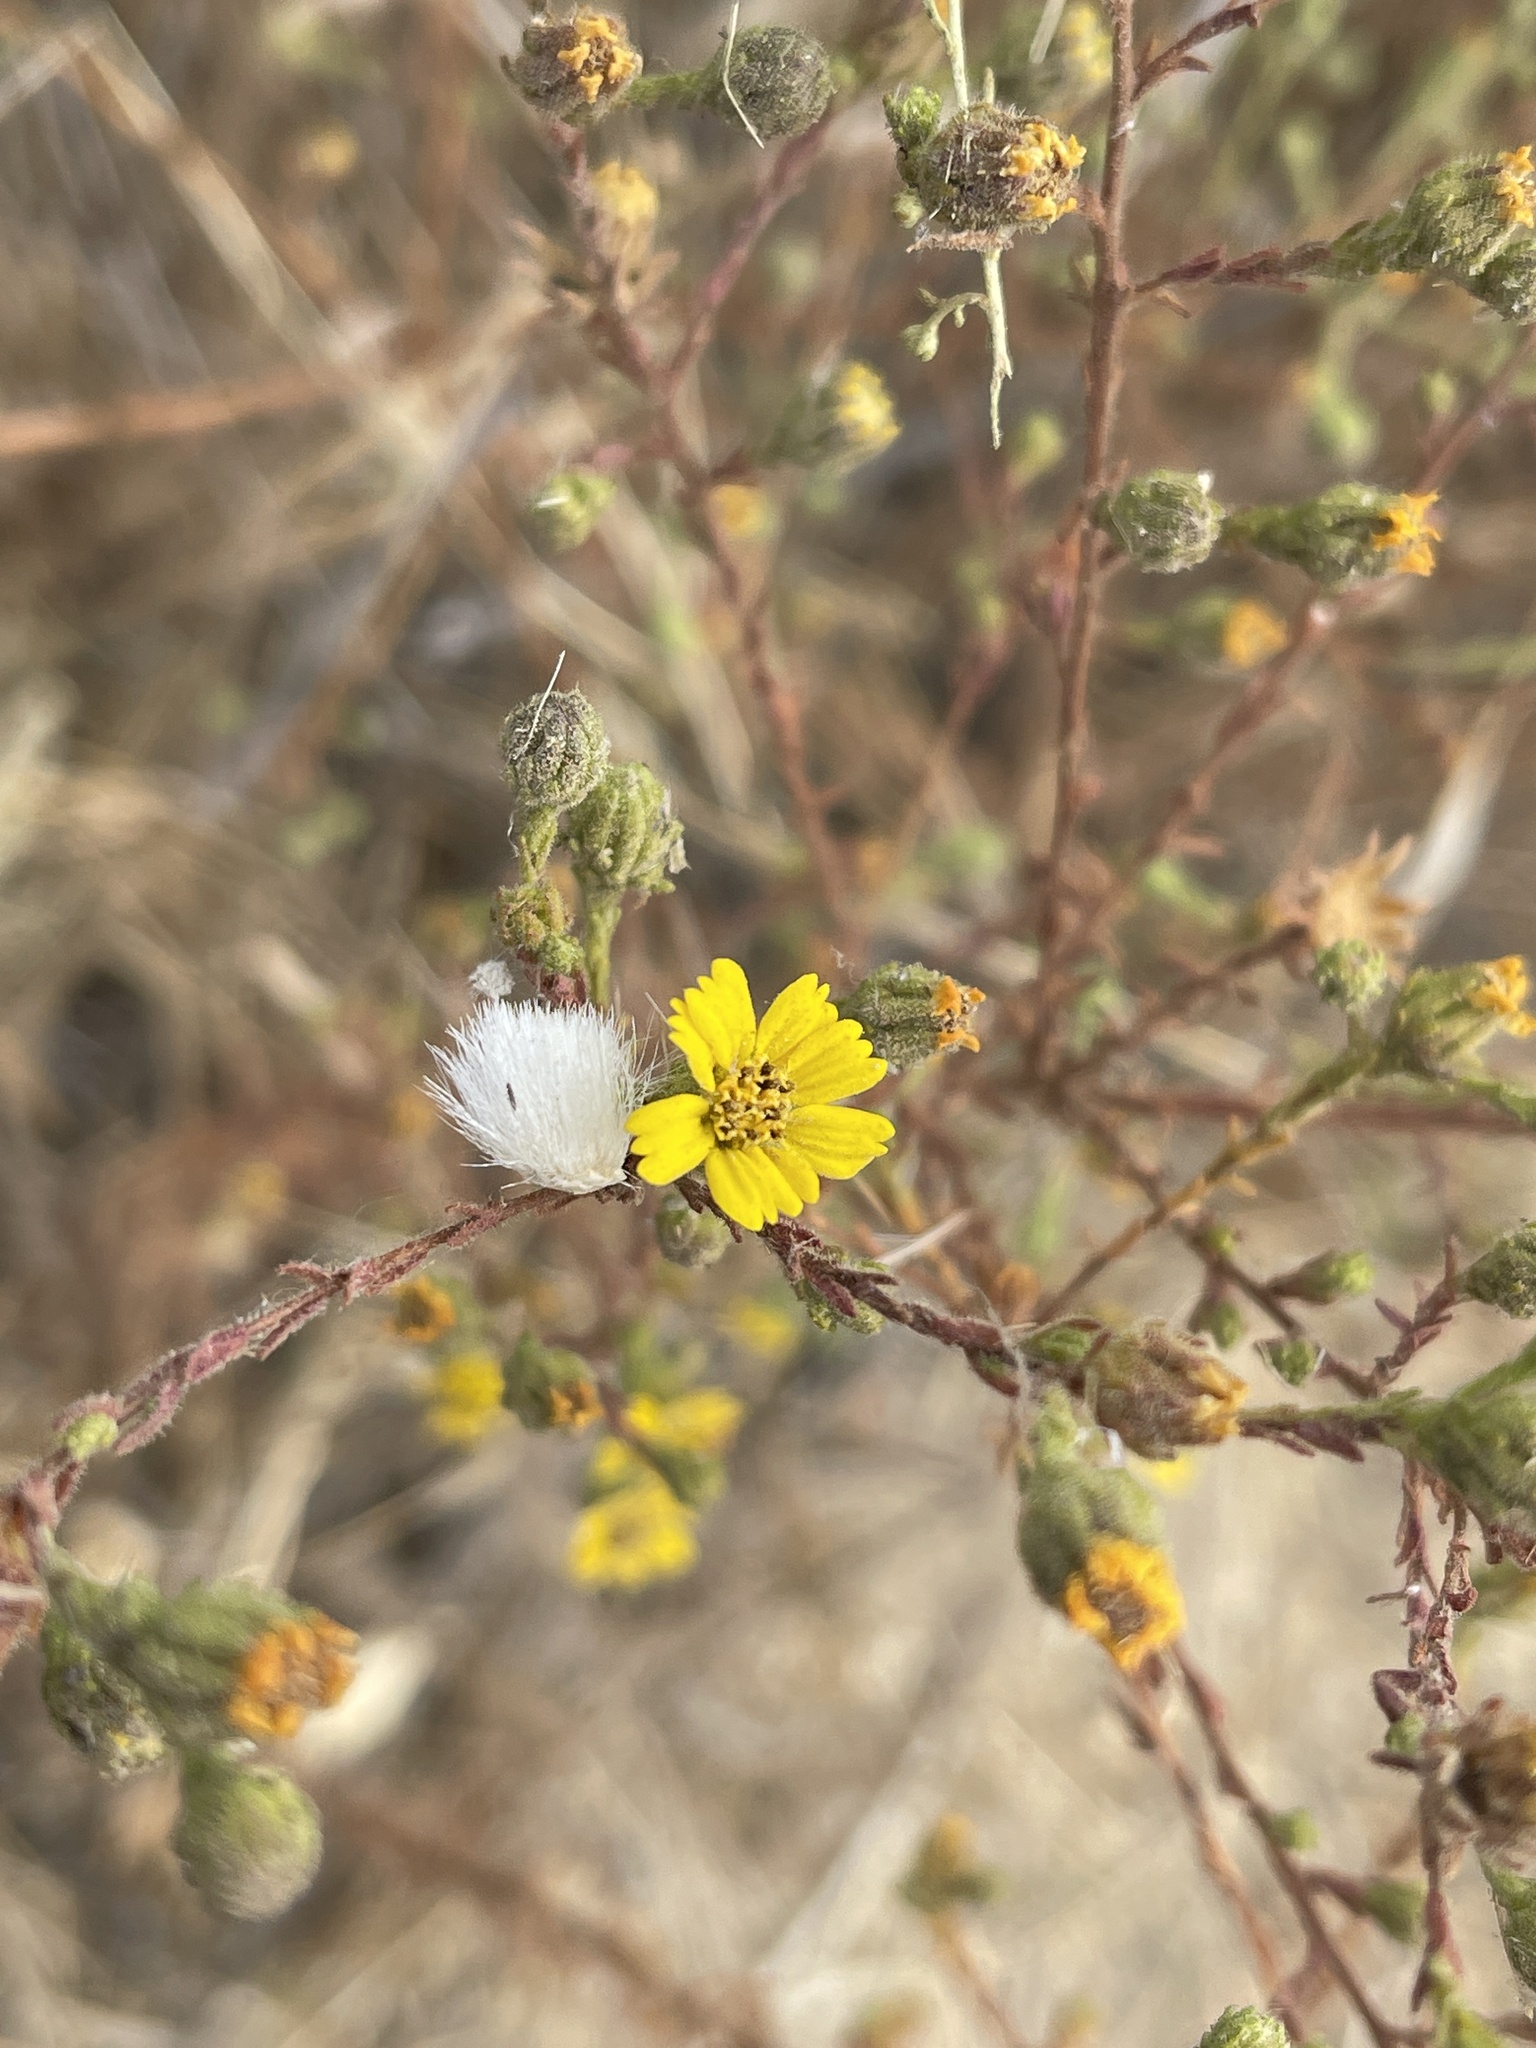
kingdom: Plantae
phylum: Tracheophyta
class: Magnoliopsida
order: Asterales
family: Asteraceae
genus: Deinandra
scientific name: Deinandra paniculata
